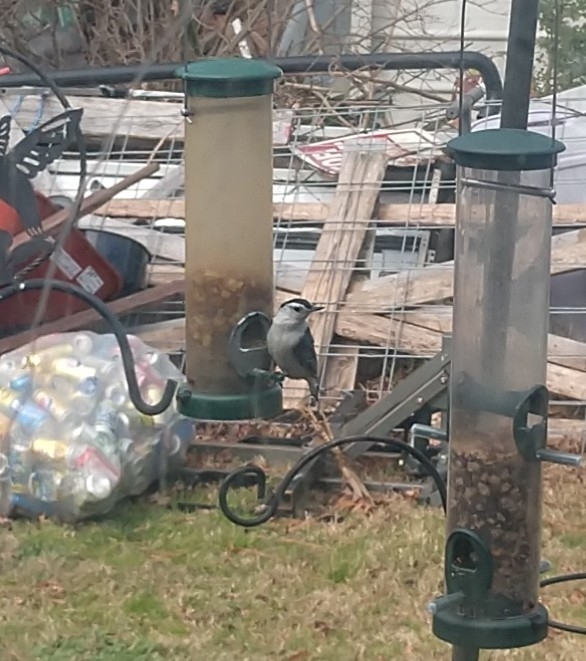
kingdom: Animalia
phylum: Chordata
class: Aves
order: Passeriformes
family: Sittidae
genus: Sitta
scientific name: Sitta carolinensis
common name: White-breasted nuthatch
